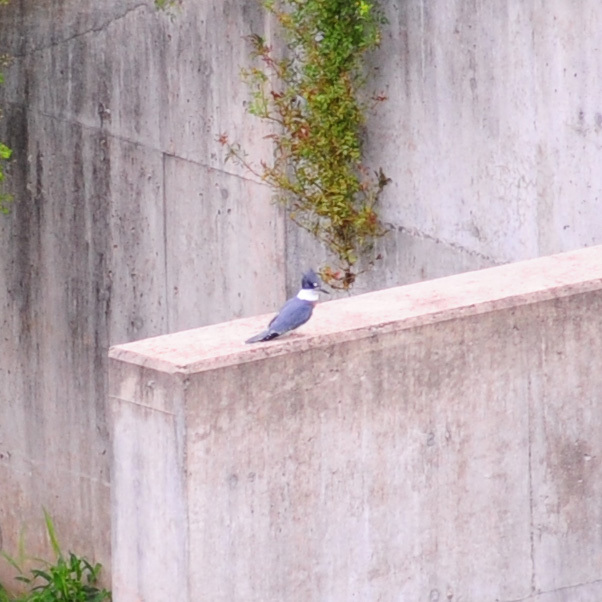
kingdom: Animalia
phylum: Chordata
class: Aves
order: Coraciiformes
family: Alcedinidae
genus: Megaceryle
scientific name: Megaceryle alcyon
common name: Belted kingfisher
